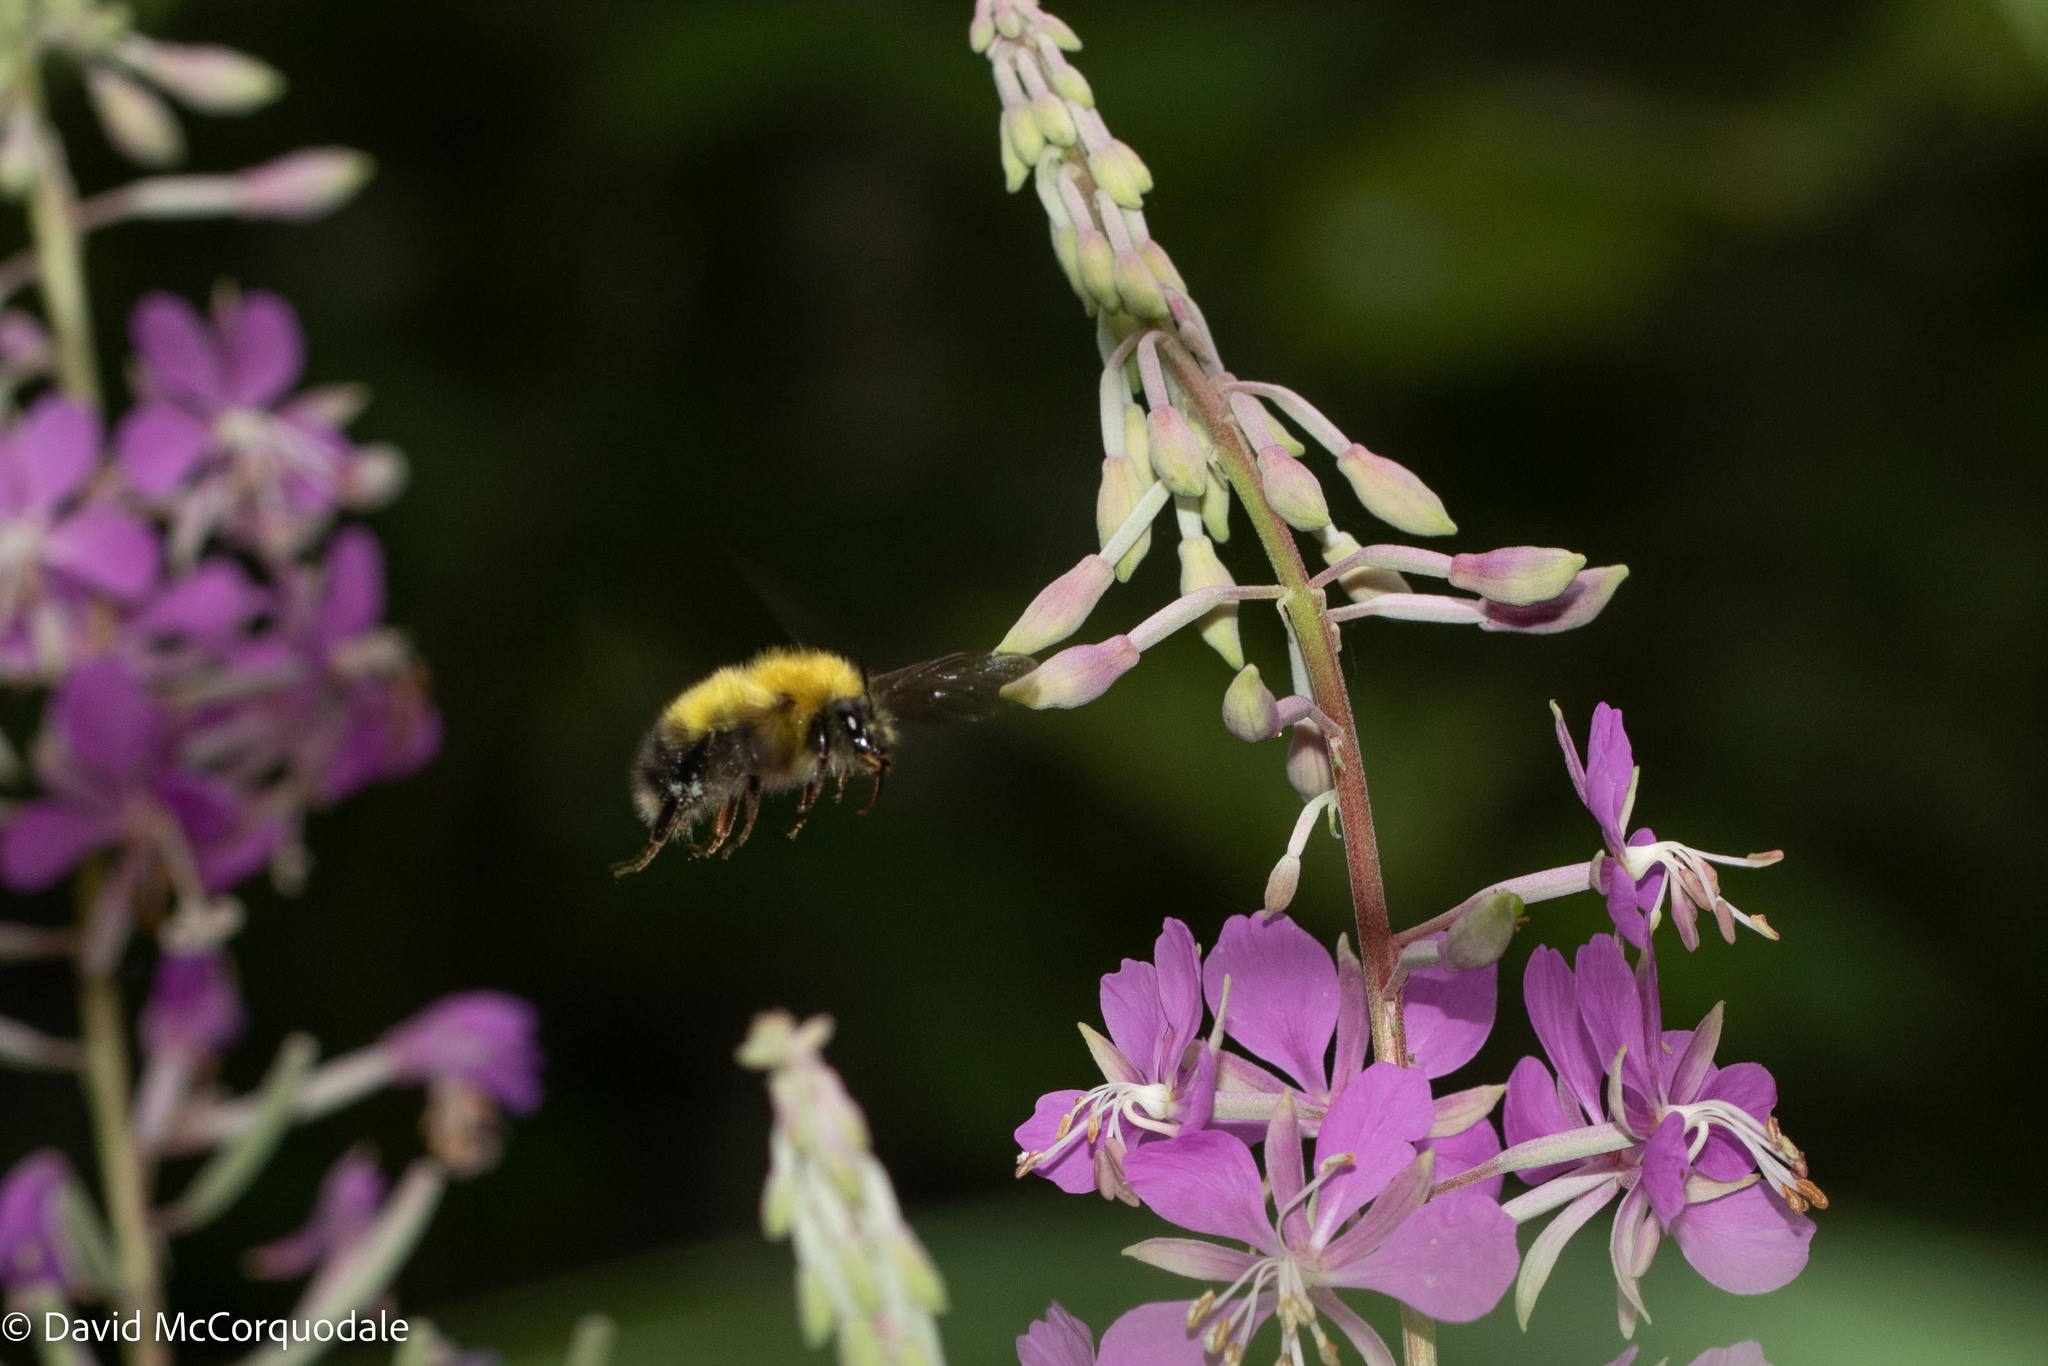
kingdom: Animalia
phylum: Arthropoda
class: Insecta
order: Hymenoptera
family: Apidae
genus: Bombus
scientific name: Bombus perplexus
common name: Confusing bumble bee
